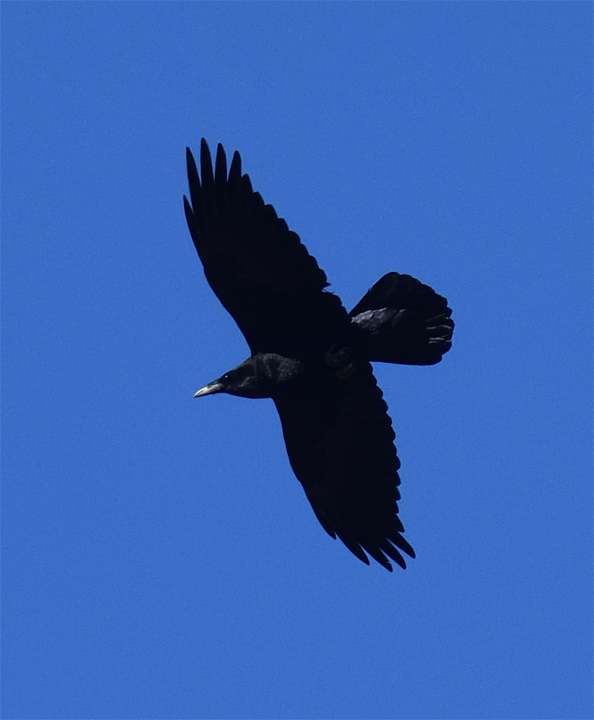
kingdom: Animalia
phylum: Chordata
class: Aves
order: Passeriformes
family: Corvidae
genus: Corvus
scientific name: Corvus corax
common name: Common raven
